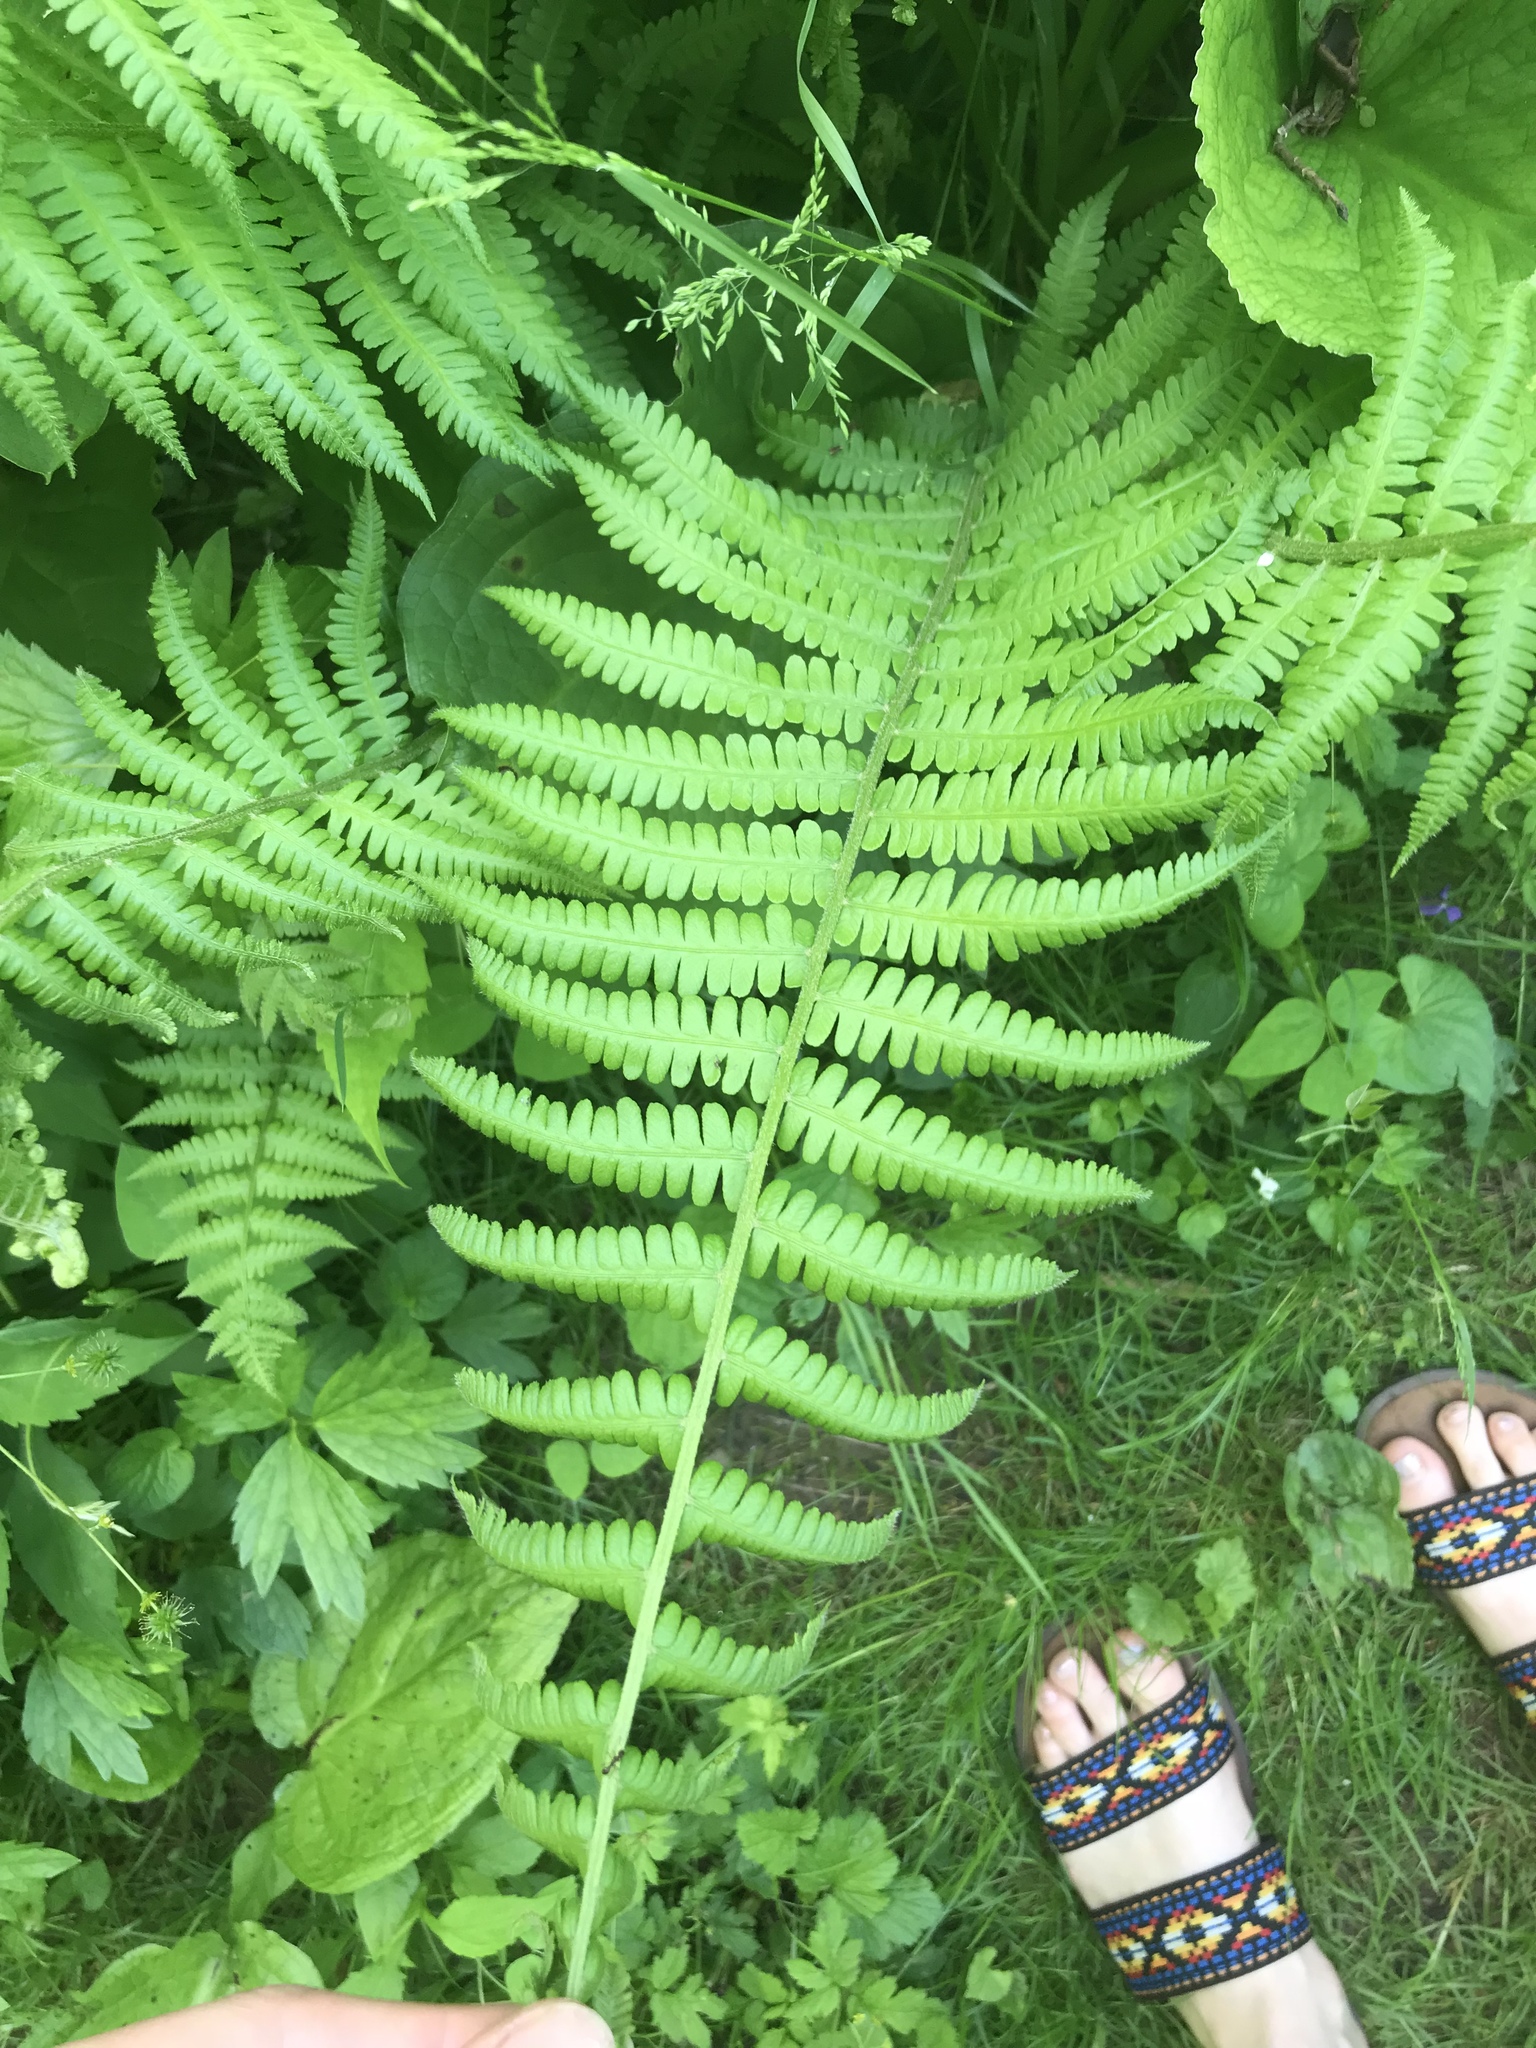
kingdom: Plantae
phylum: Tracheophyta
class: Polypodiopsida
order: Polypodiales
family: Athyriaceae
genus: Deparia
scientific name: Deparia acrostichoides
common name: Silver false spleenwort
